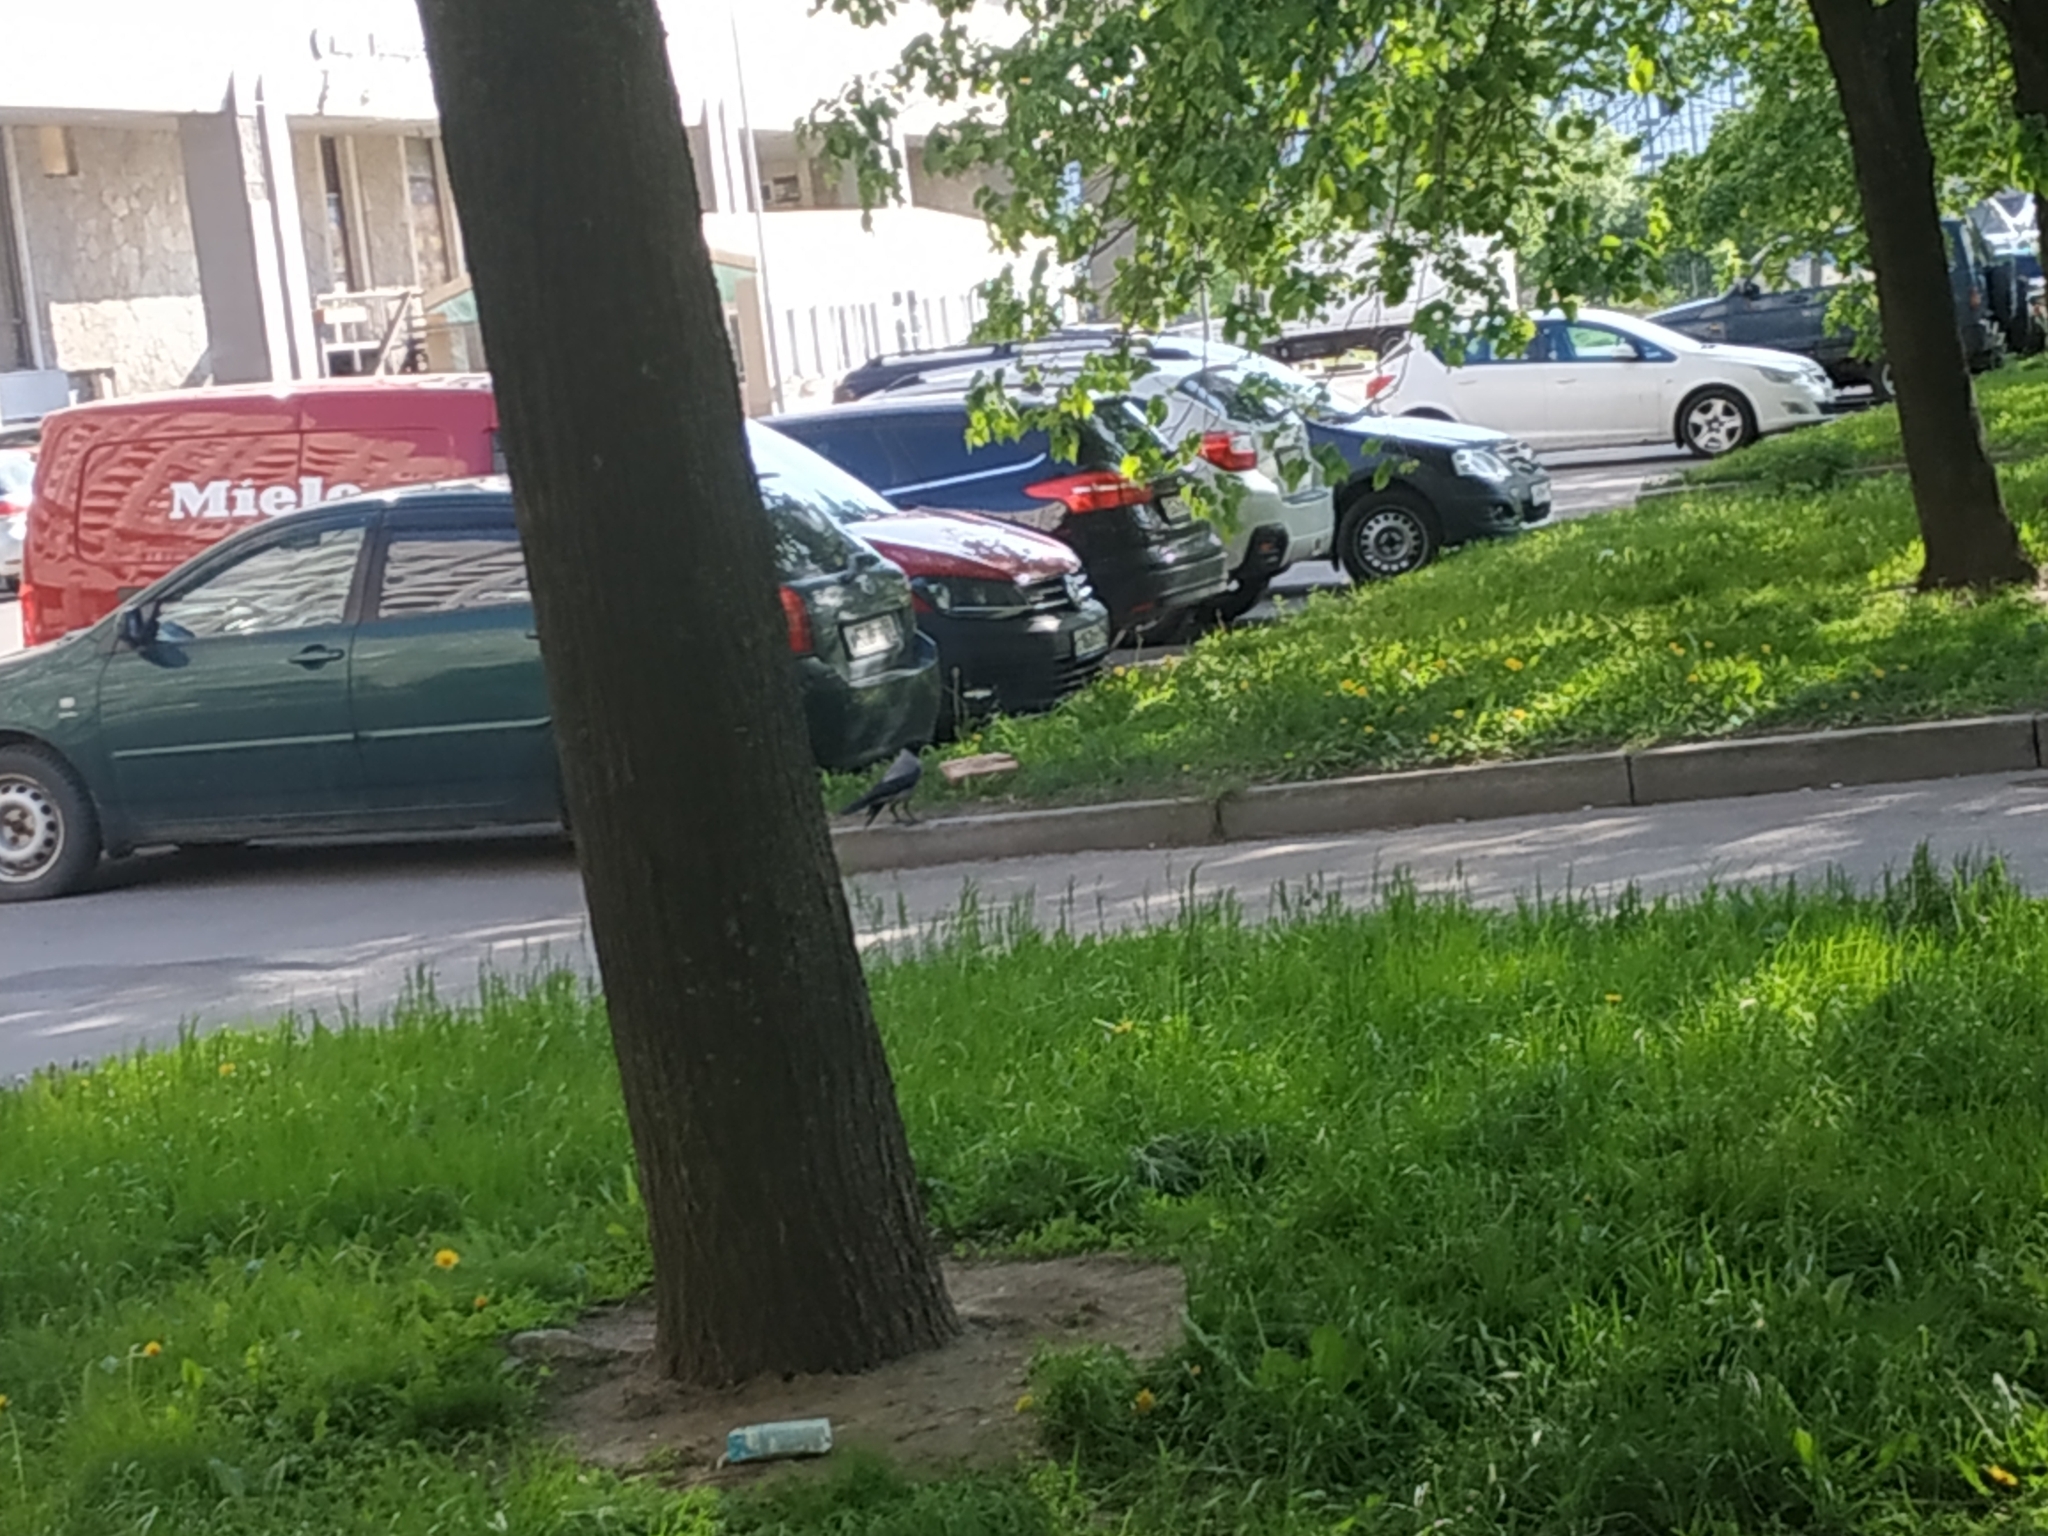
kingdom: Animalia
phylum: Chordata
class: Aves
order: Passeriformes
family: Corvidae
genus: Corvus
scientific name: Corvus cornix
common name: Hooded crow
